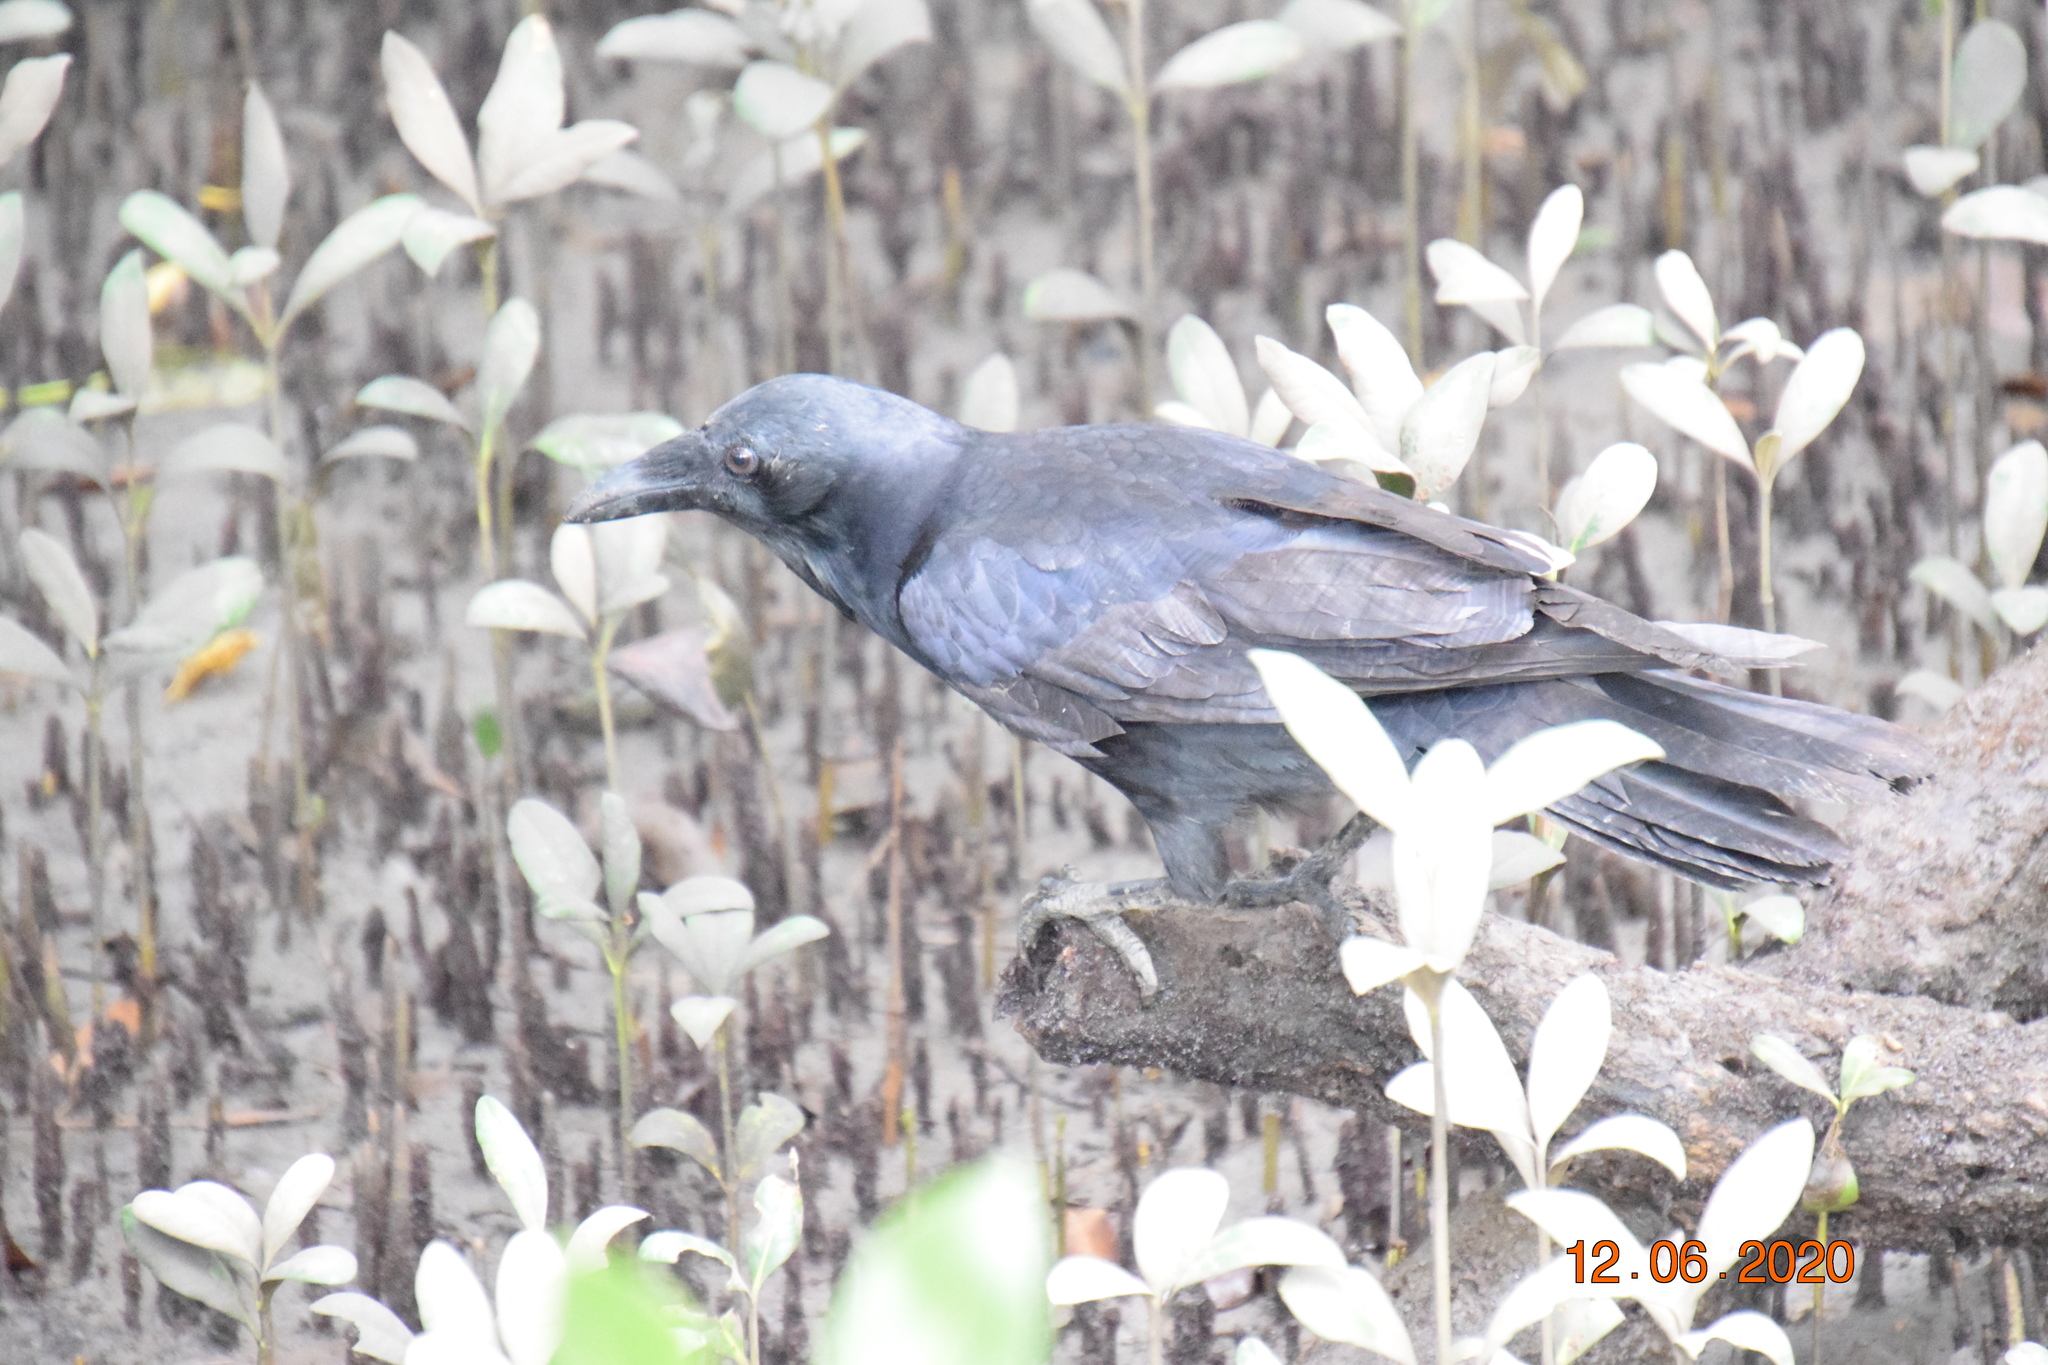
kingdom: Animalia
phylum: Chordata
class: Aves
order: Passeriformes
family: Corvidae
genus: Corvus
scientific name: Corvus coronoides
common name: Australian raven
